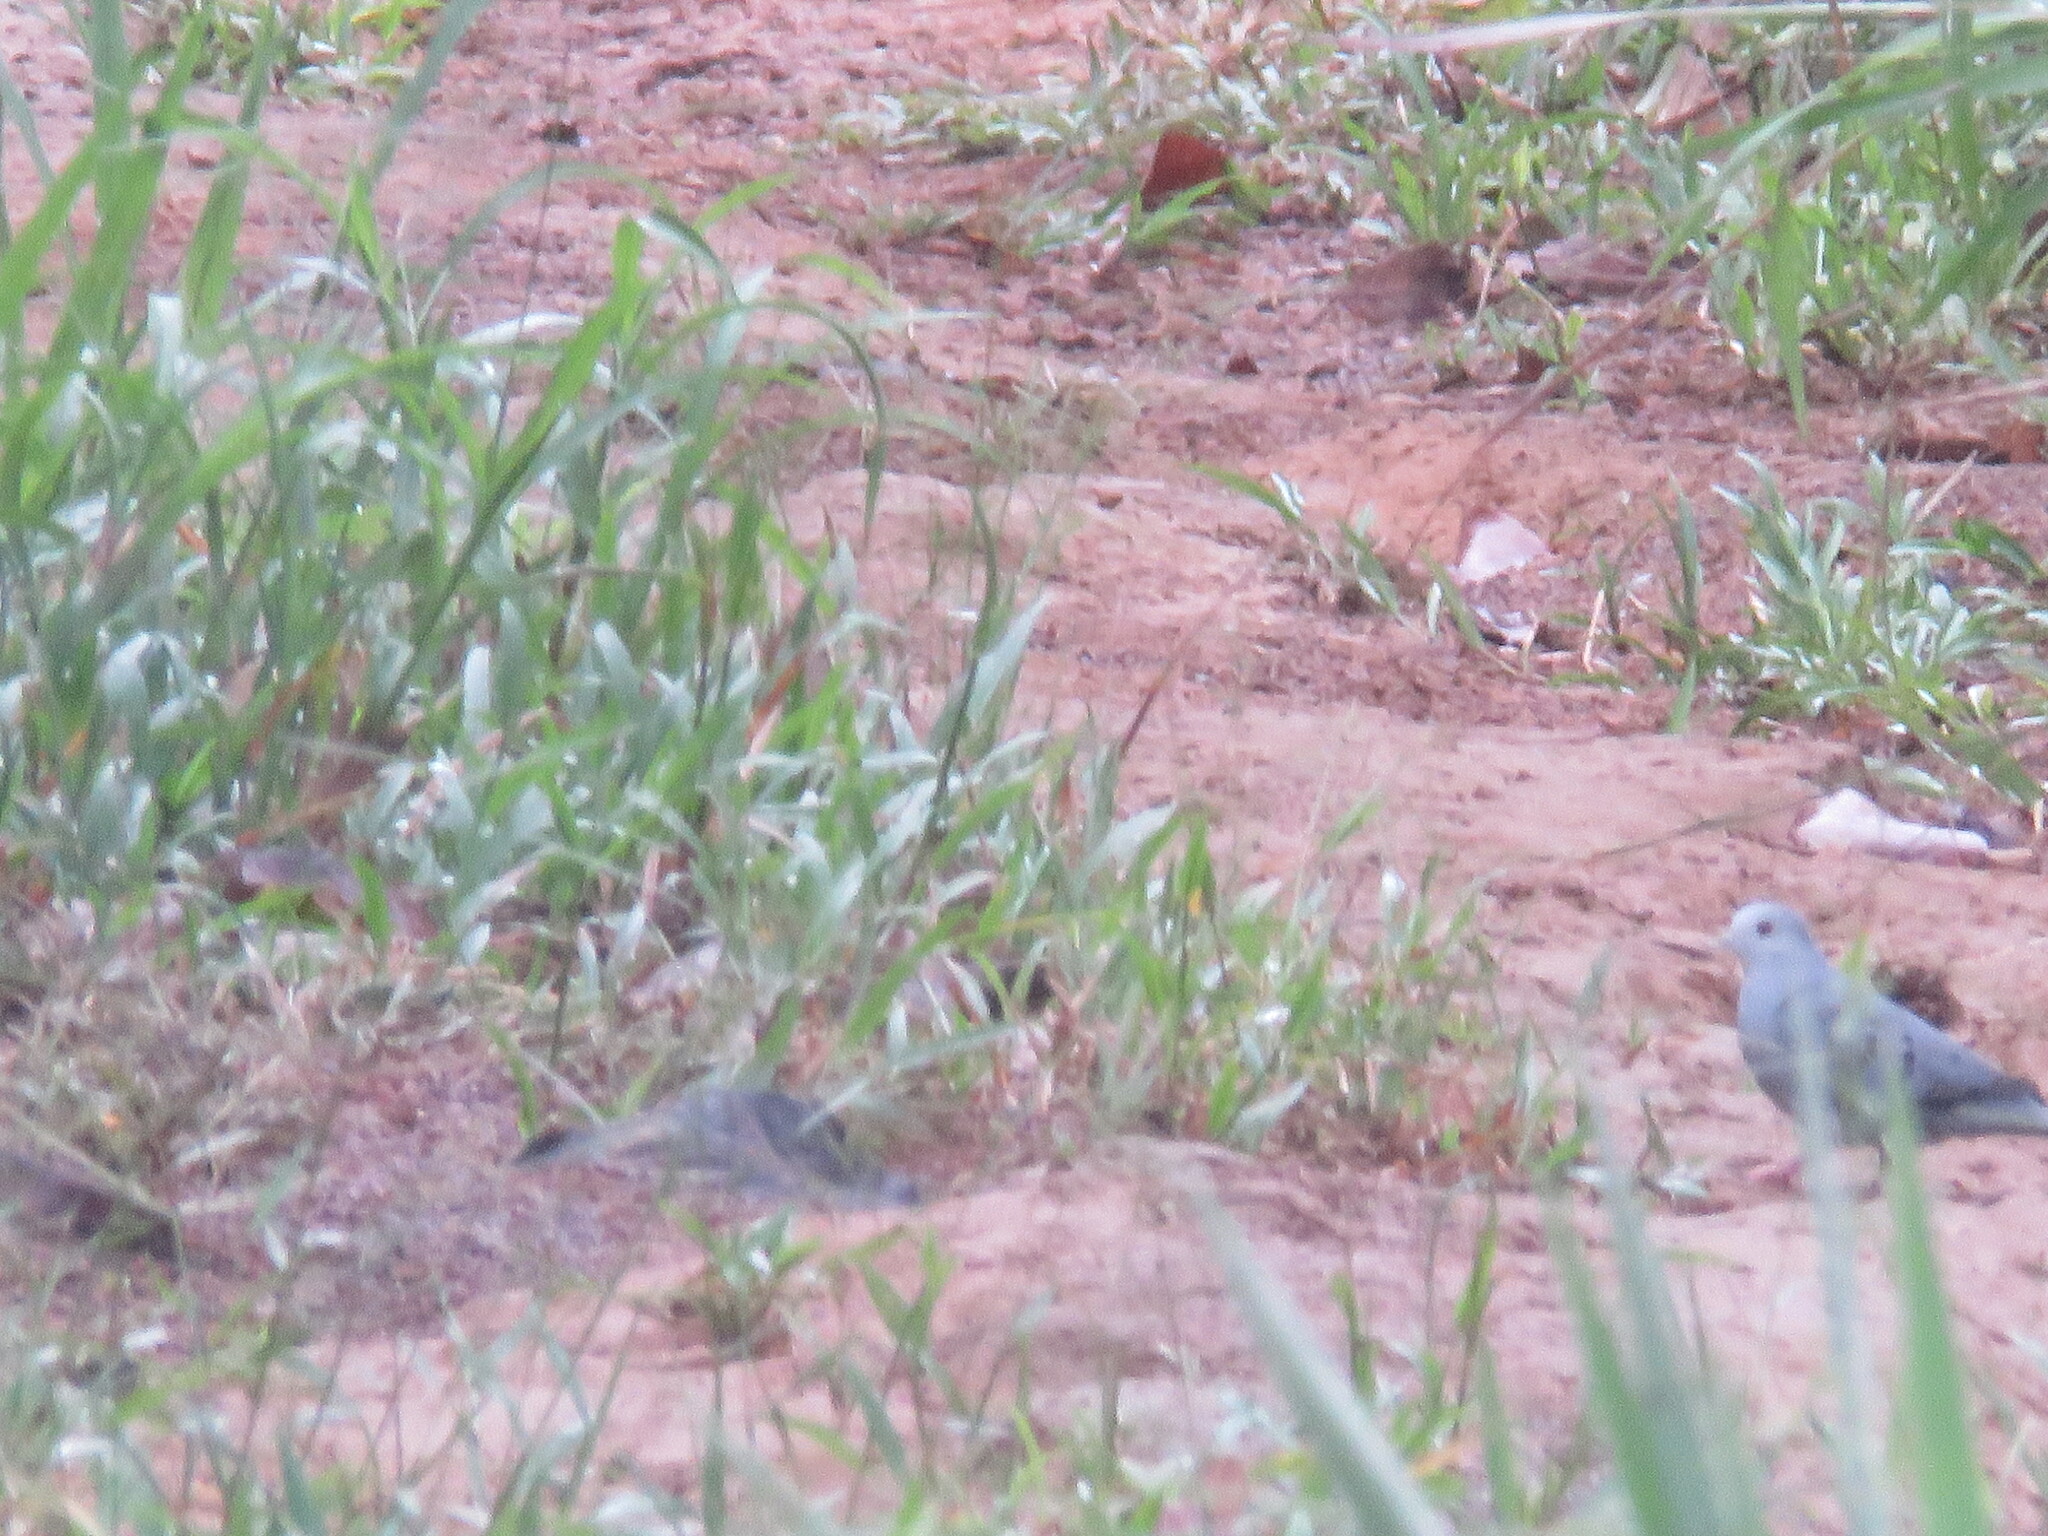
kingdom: Animalia
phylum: Chordata
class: Aves
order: Columbiformes
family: Columbidae
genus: Claravis
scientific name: Claravis pretiosa
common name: Blue ground-dove
